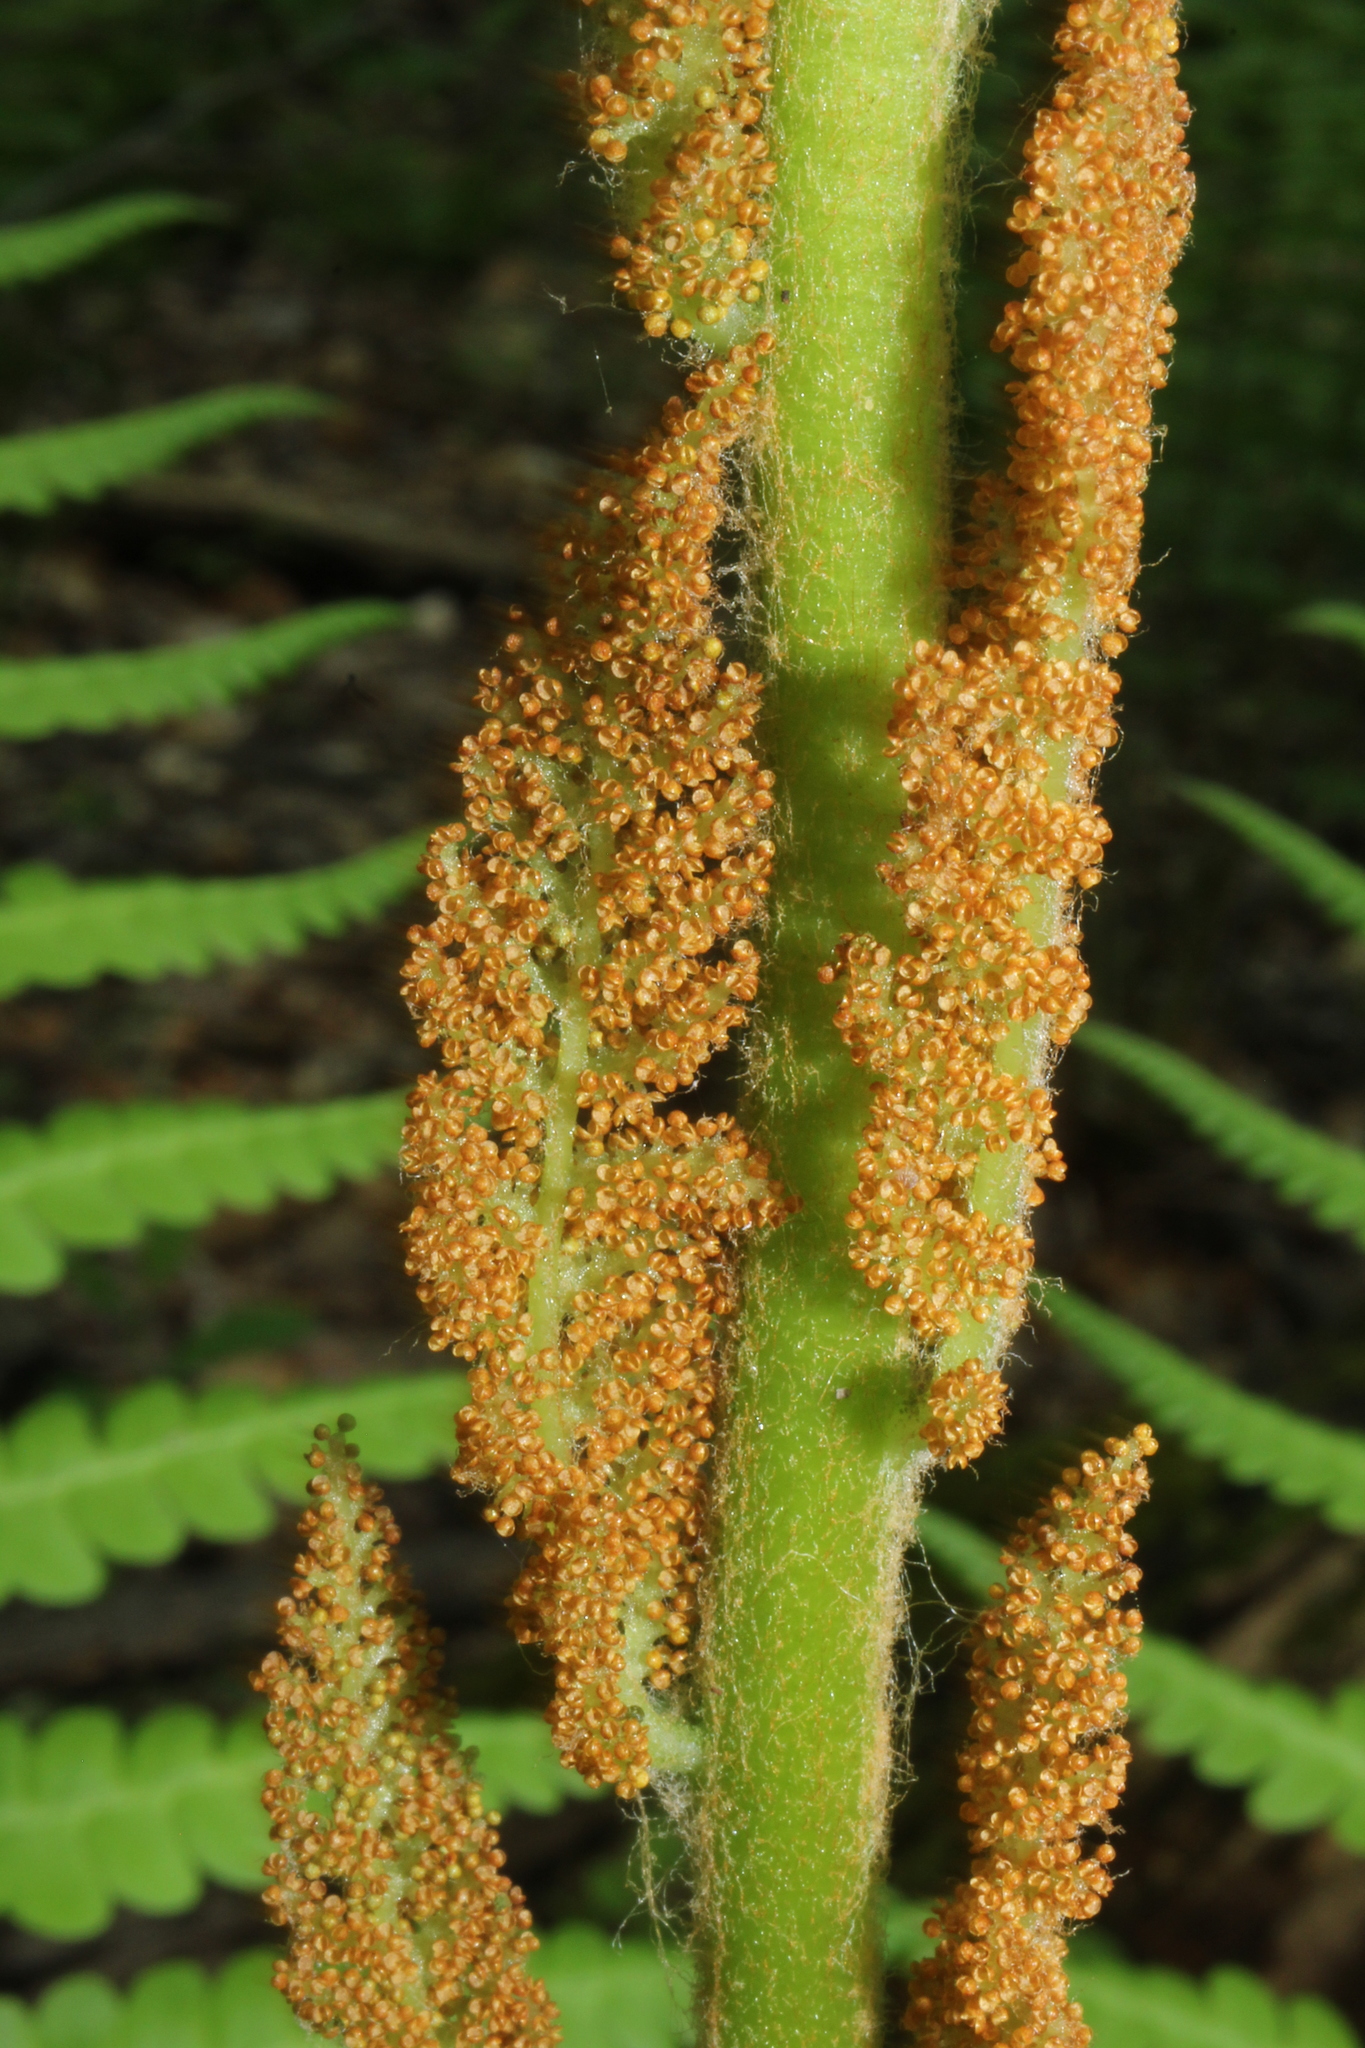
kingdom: Plantae
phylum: Tracheophyta
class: Polypodiopsida
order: Osmundales
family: Osmundaceae
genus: Osmundastrum
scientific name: Osmundastrum cinnamomeum
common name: Cinnamon fern
